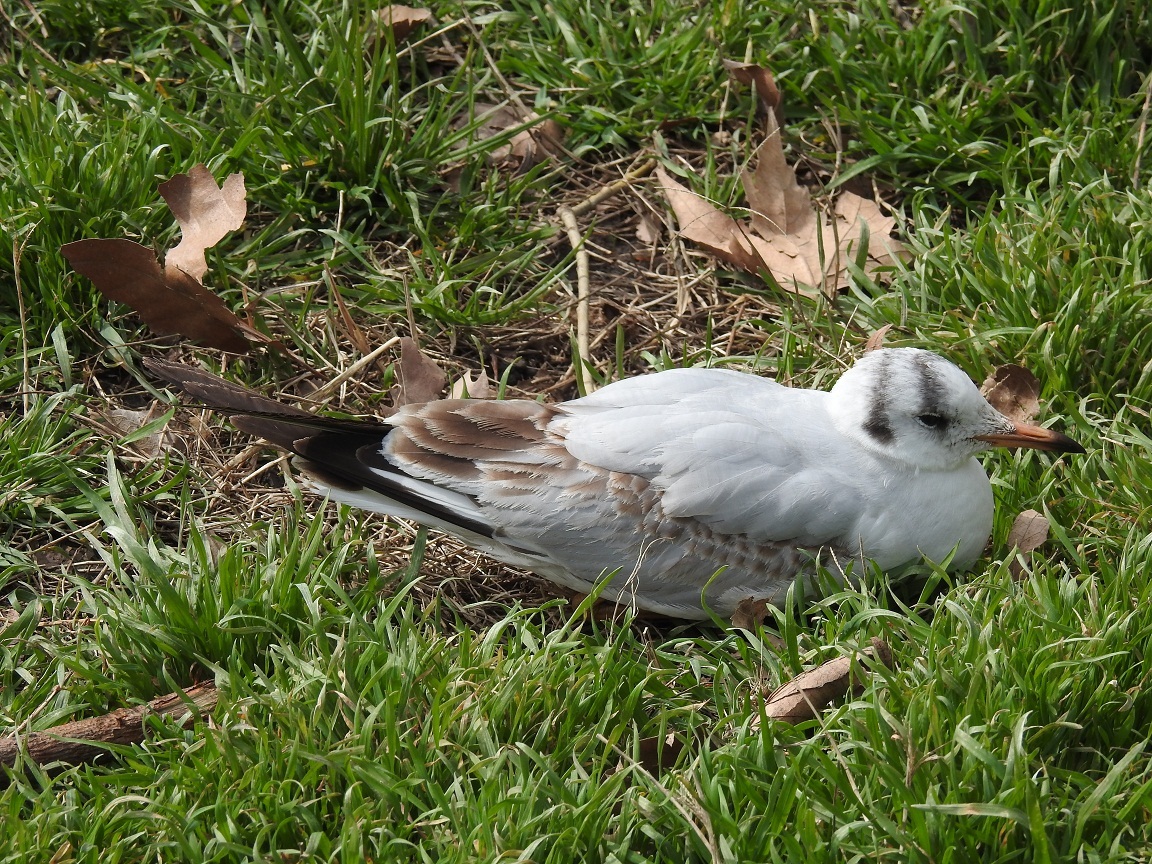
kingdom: Animalia
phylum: Chordata
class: Aves
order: Charadriiformes
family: Laridae
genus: Chroicocephalus
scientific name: Chroicocephalus ridibundus
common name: Black-headed gull
